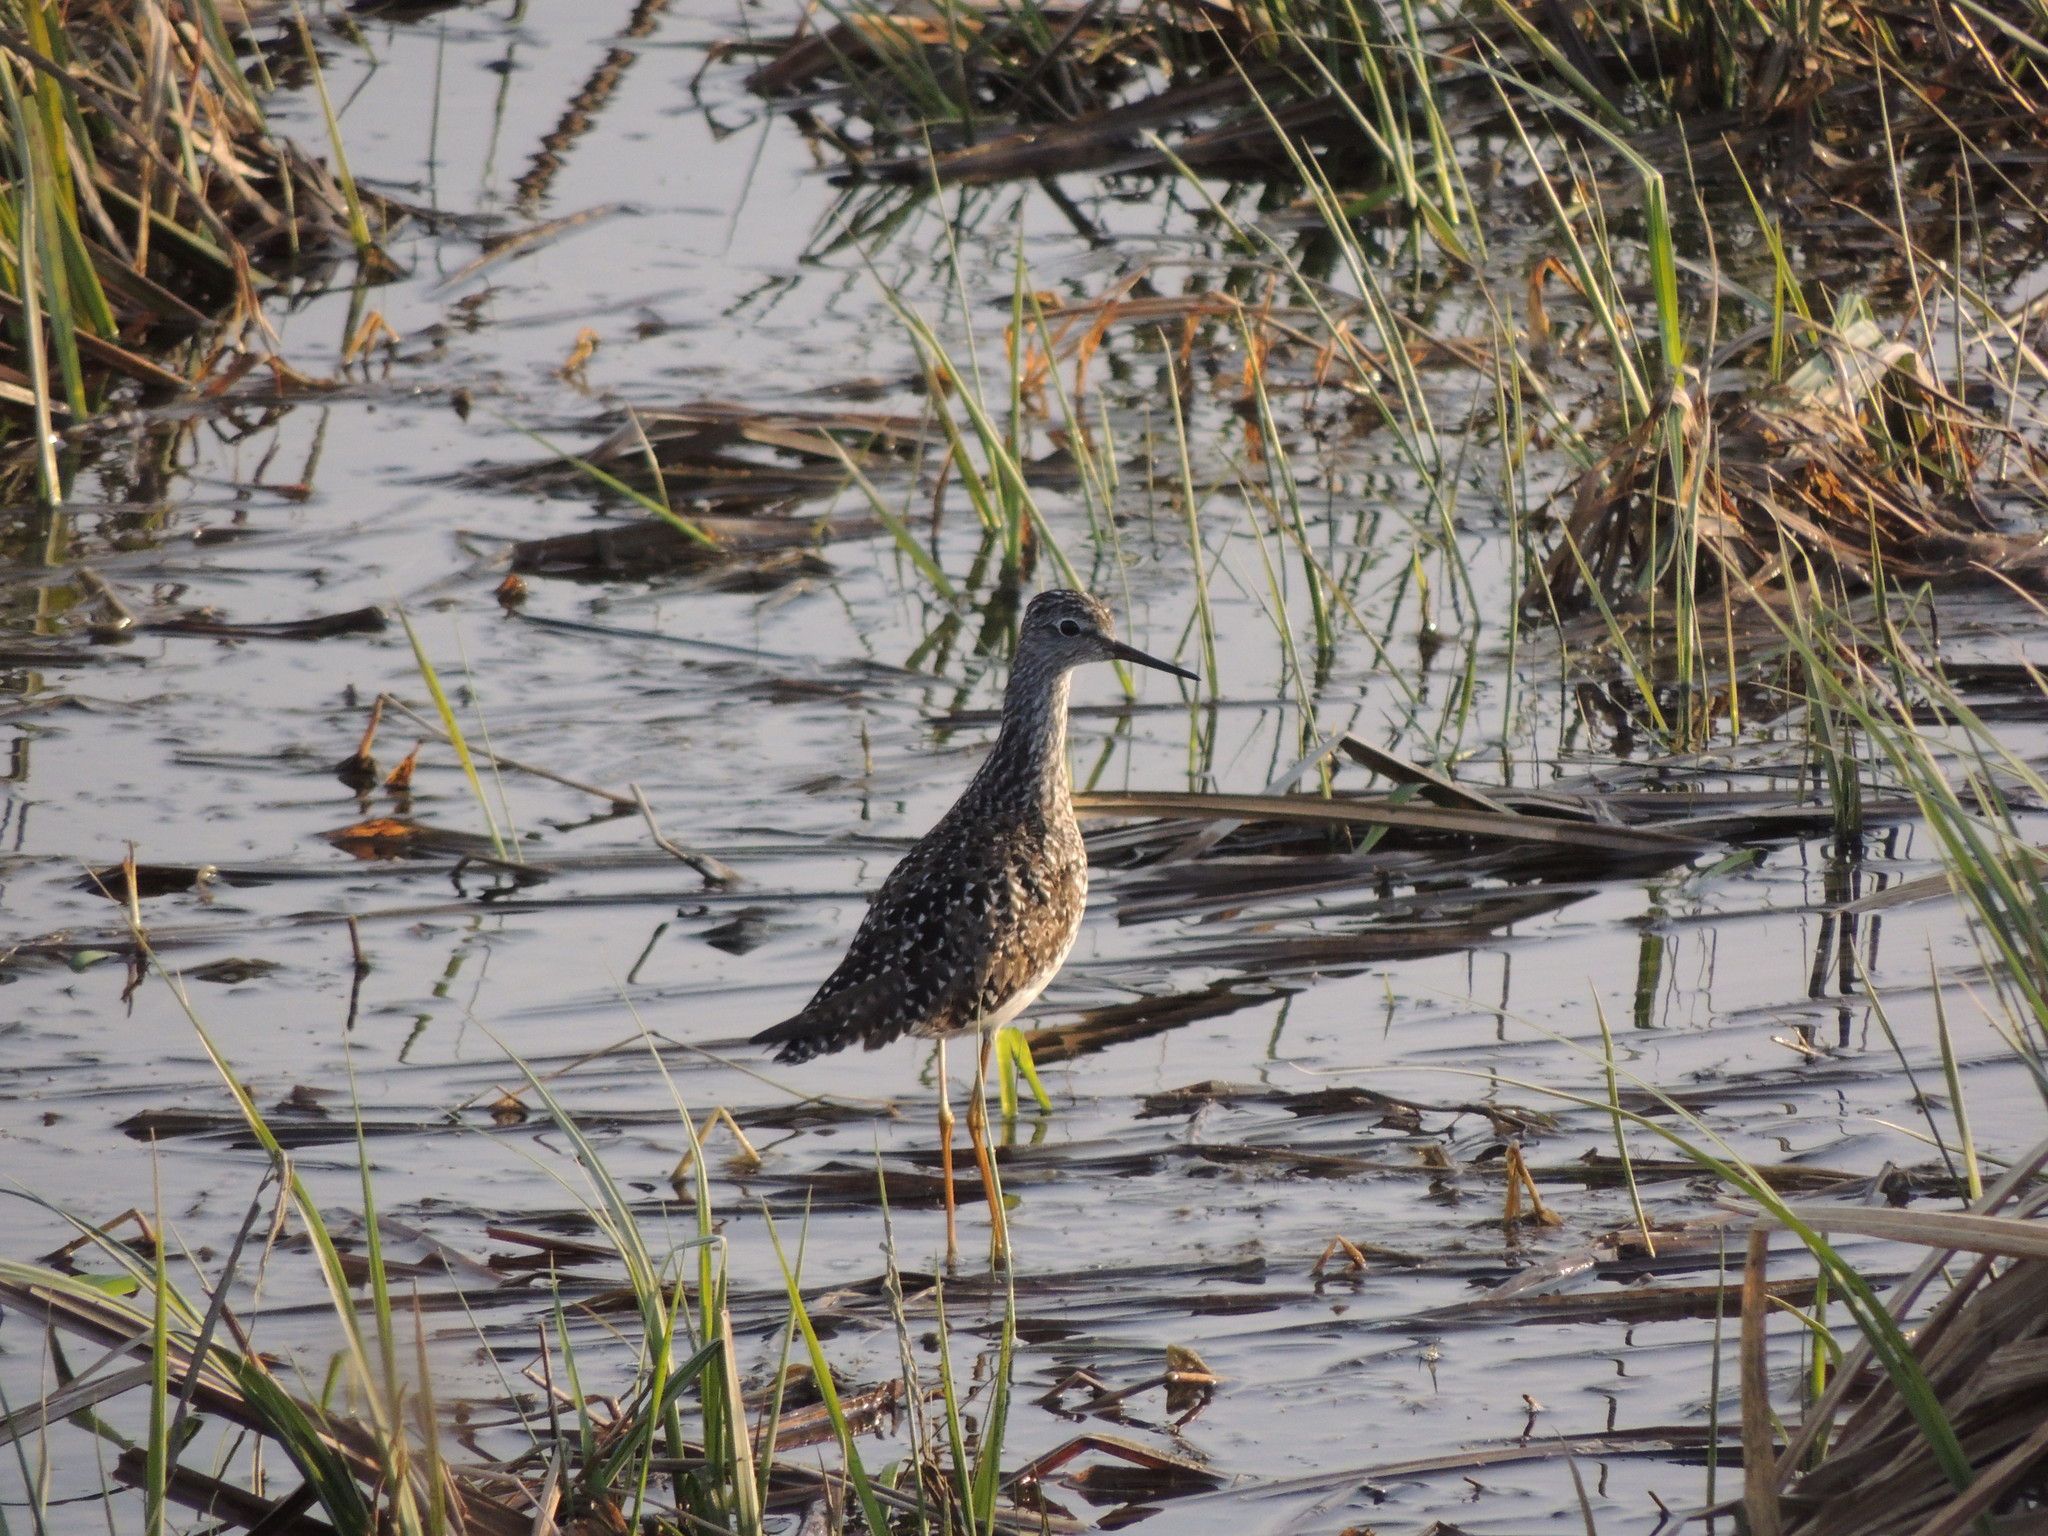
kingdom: Animalia
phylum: Chordata
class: Aves
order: Charadriiformes
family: Scolopacidae
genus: Tringa
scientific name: Tringa flavipes
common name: Lesser yellowlegs
